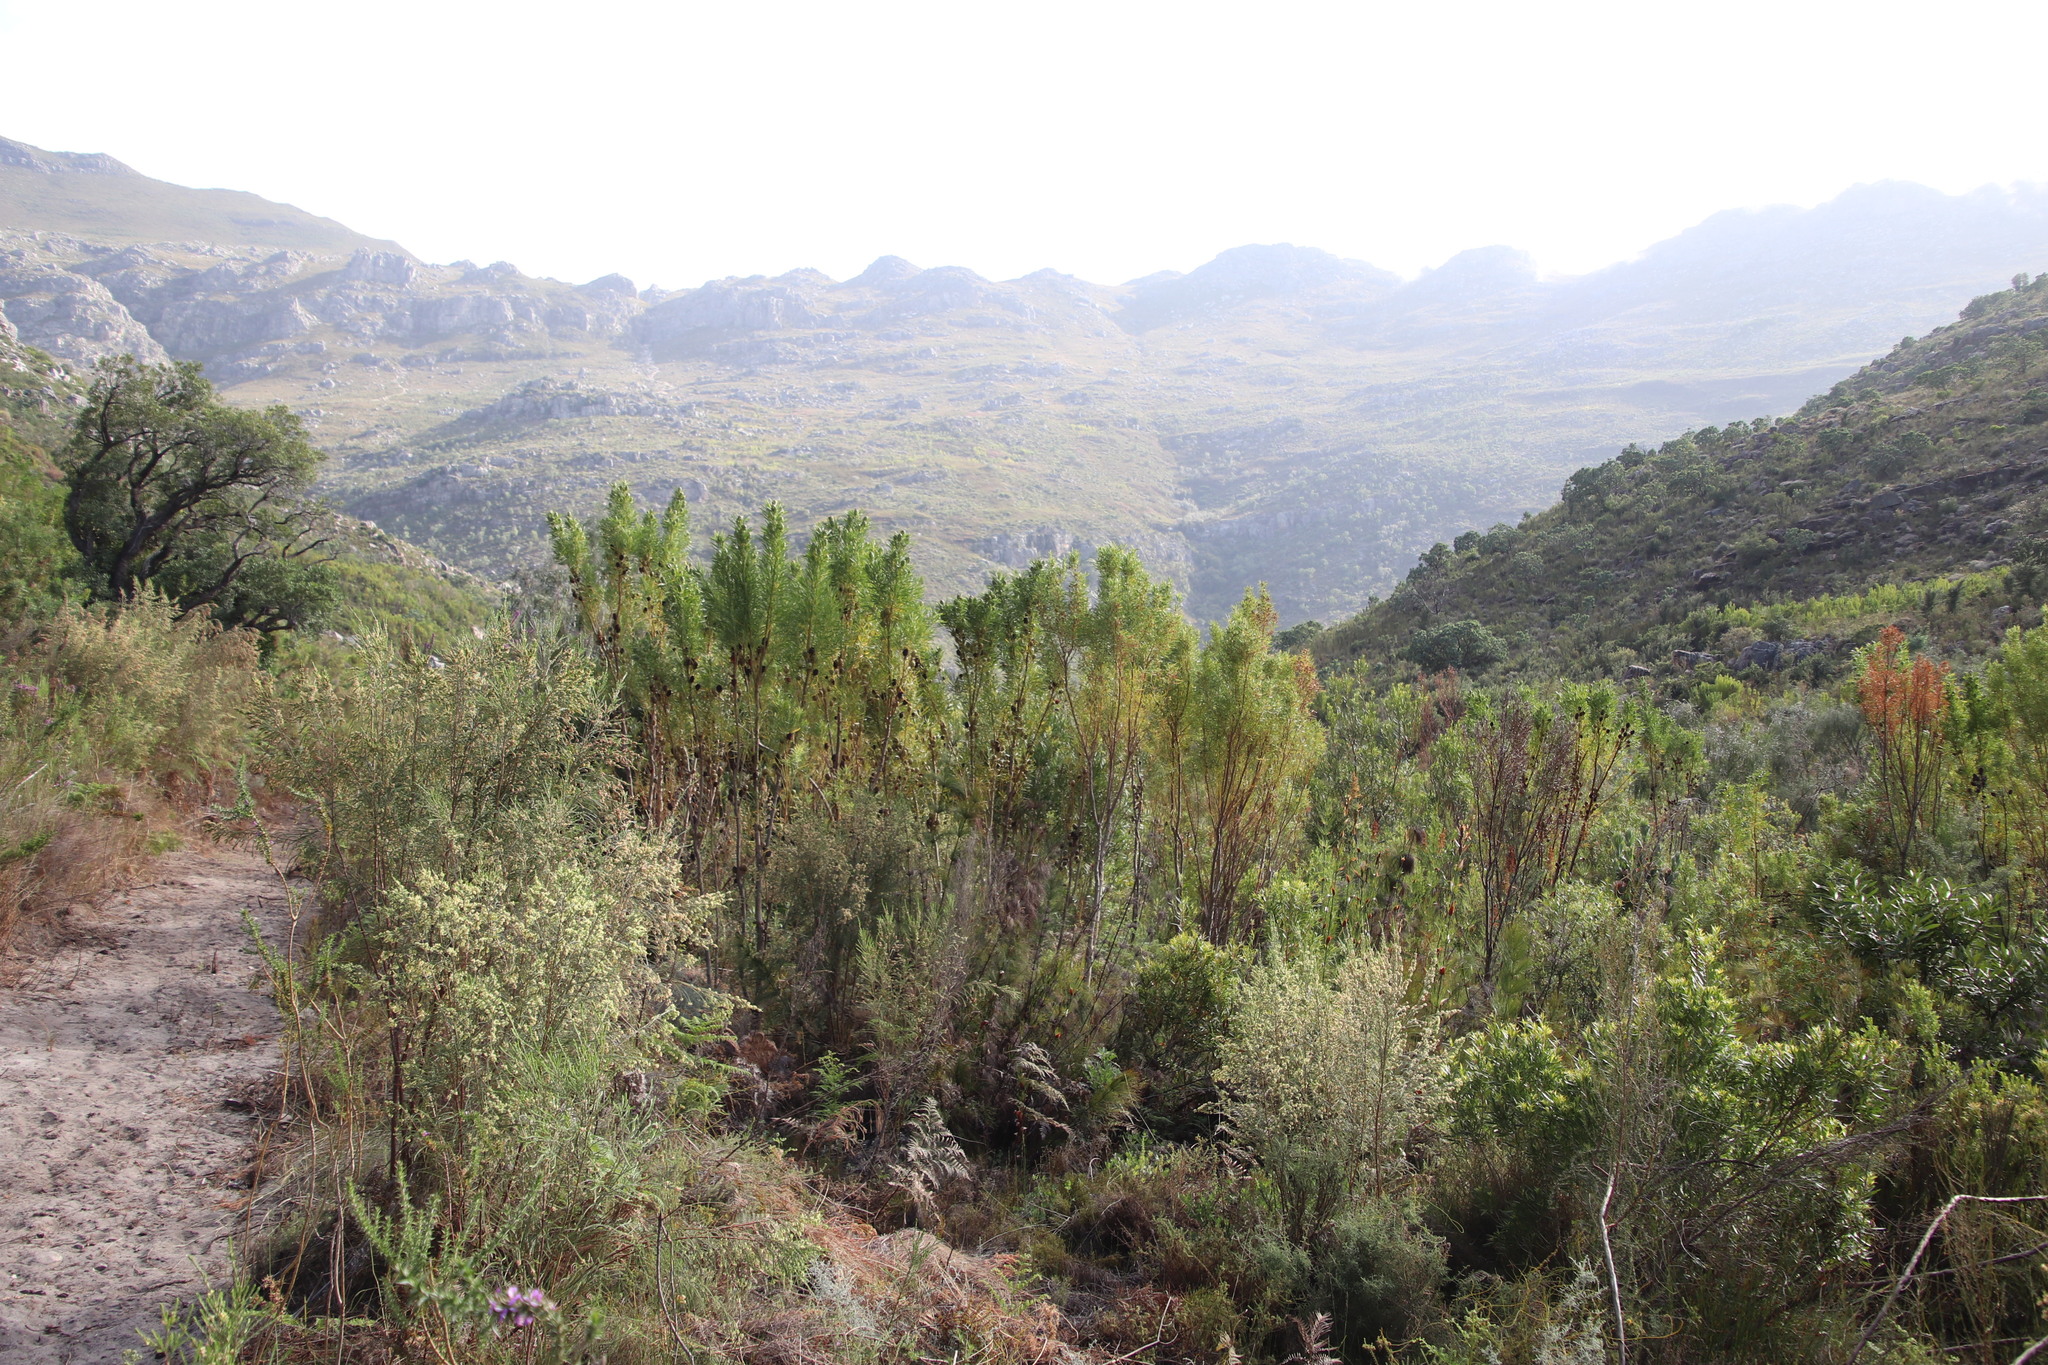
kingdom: Plantae
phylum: Tracheophyta
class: Magnoliopsida
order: Proteales
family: Proteaceae
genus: Leucadendron
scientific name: Leucadendron salicifolium
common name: Common stream conebush
